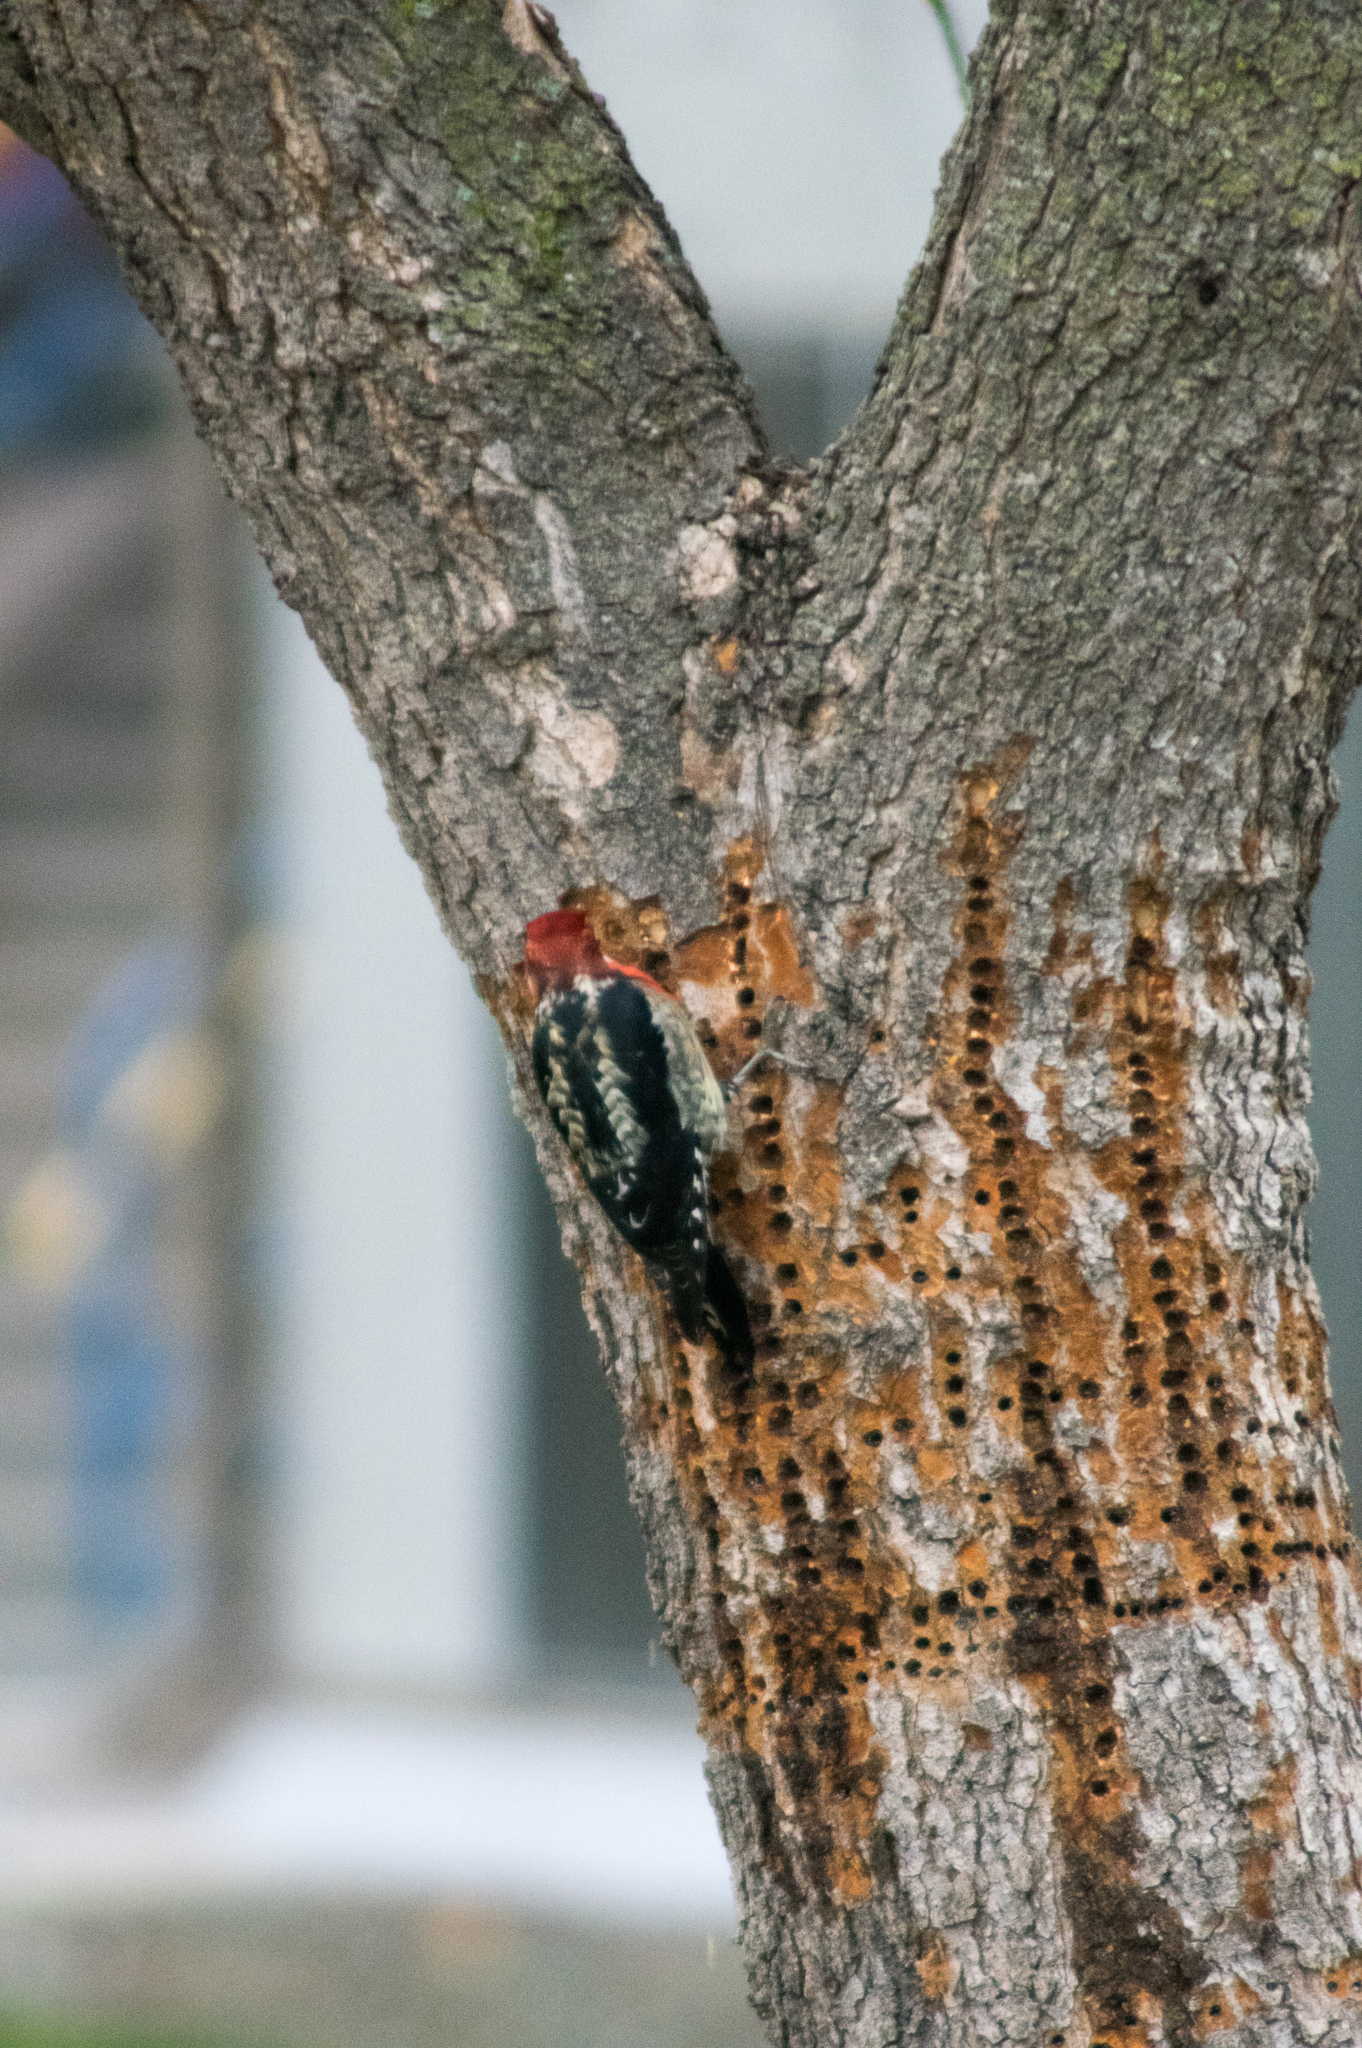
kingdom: Animalia
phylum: Chordata
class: Aves
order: Piciformes
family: Picidae
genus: Sphyrapicus
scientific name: Sphyrapicus ruber
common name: Red-breasted sapsucker
